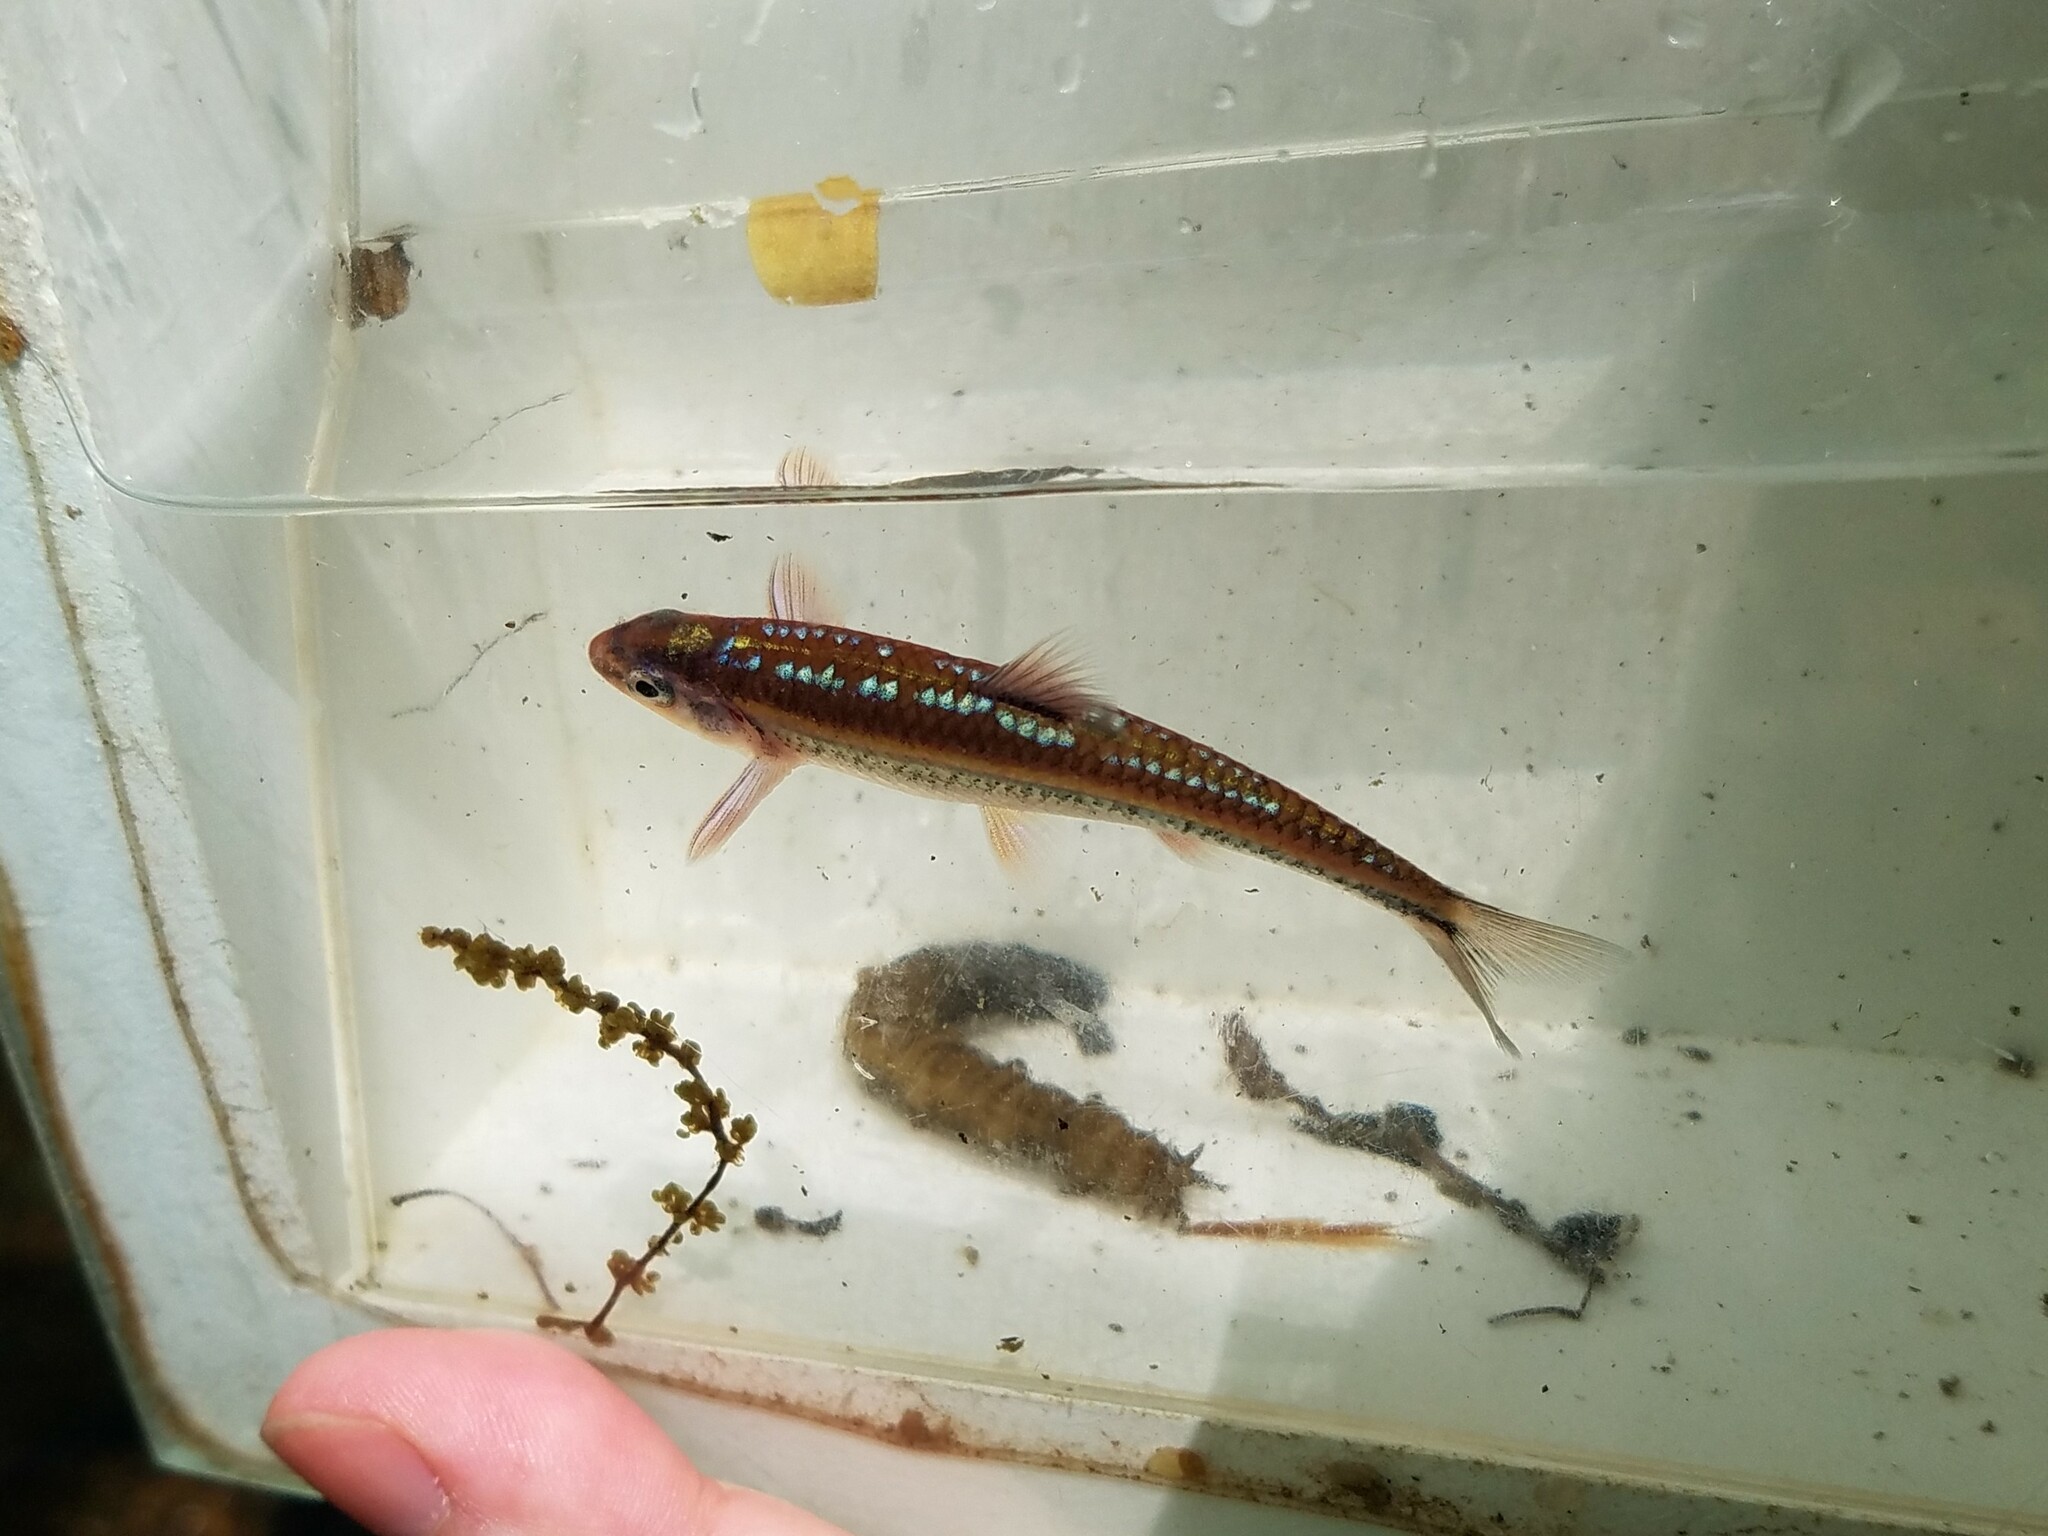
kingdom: Animalia
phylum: Chordata
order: Cypriniformes
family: Cyprinidae
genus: Notropis
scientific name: Notropis
